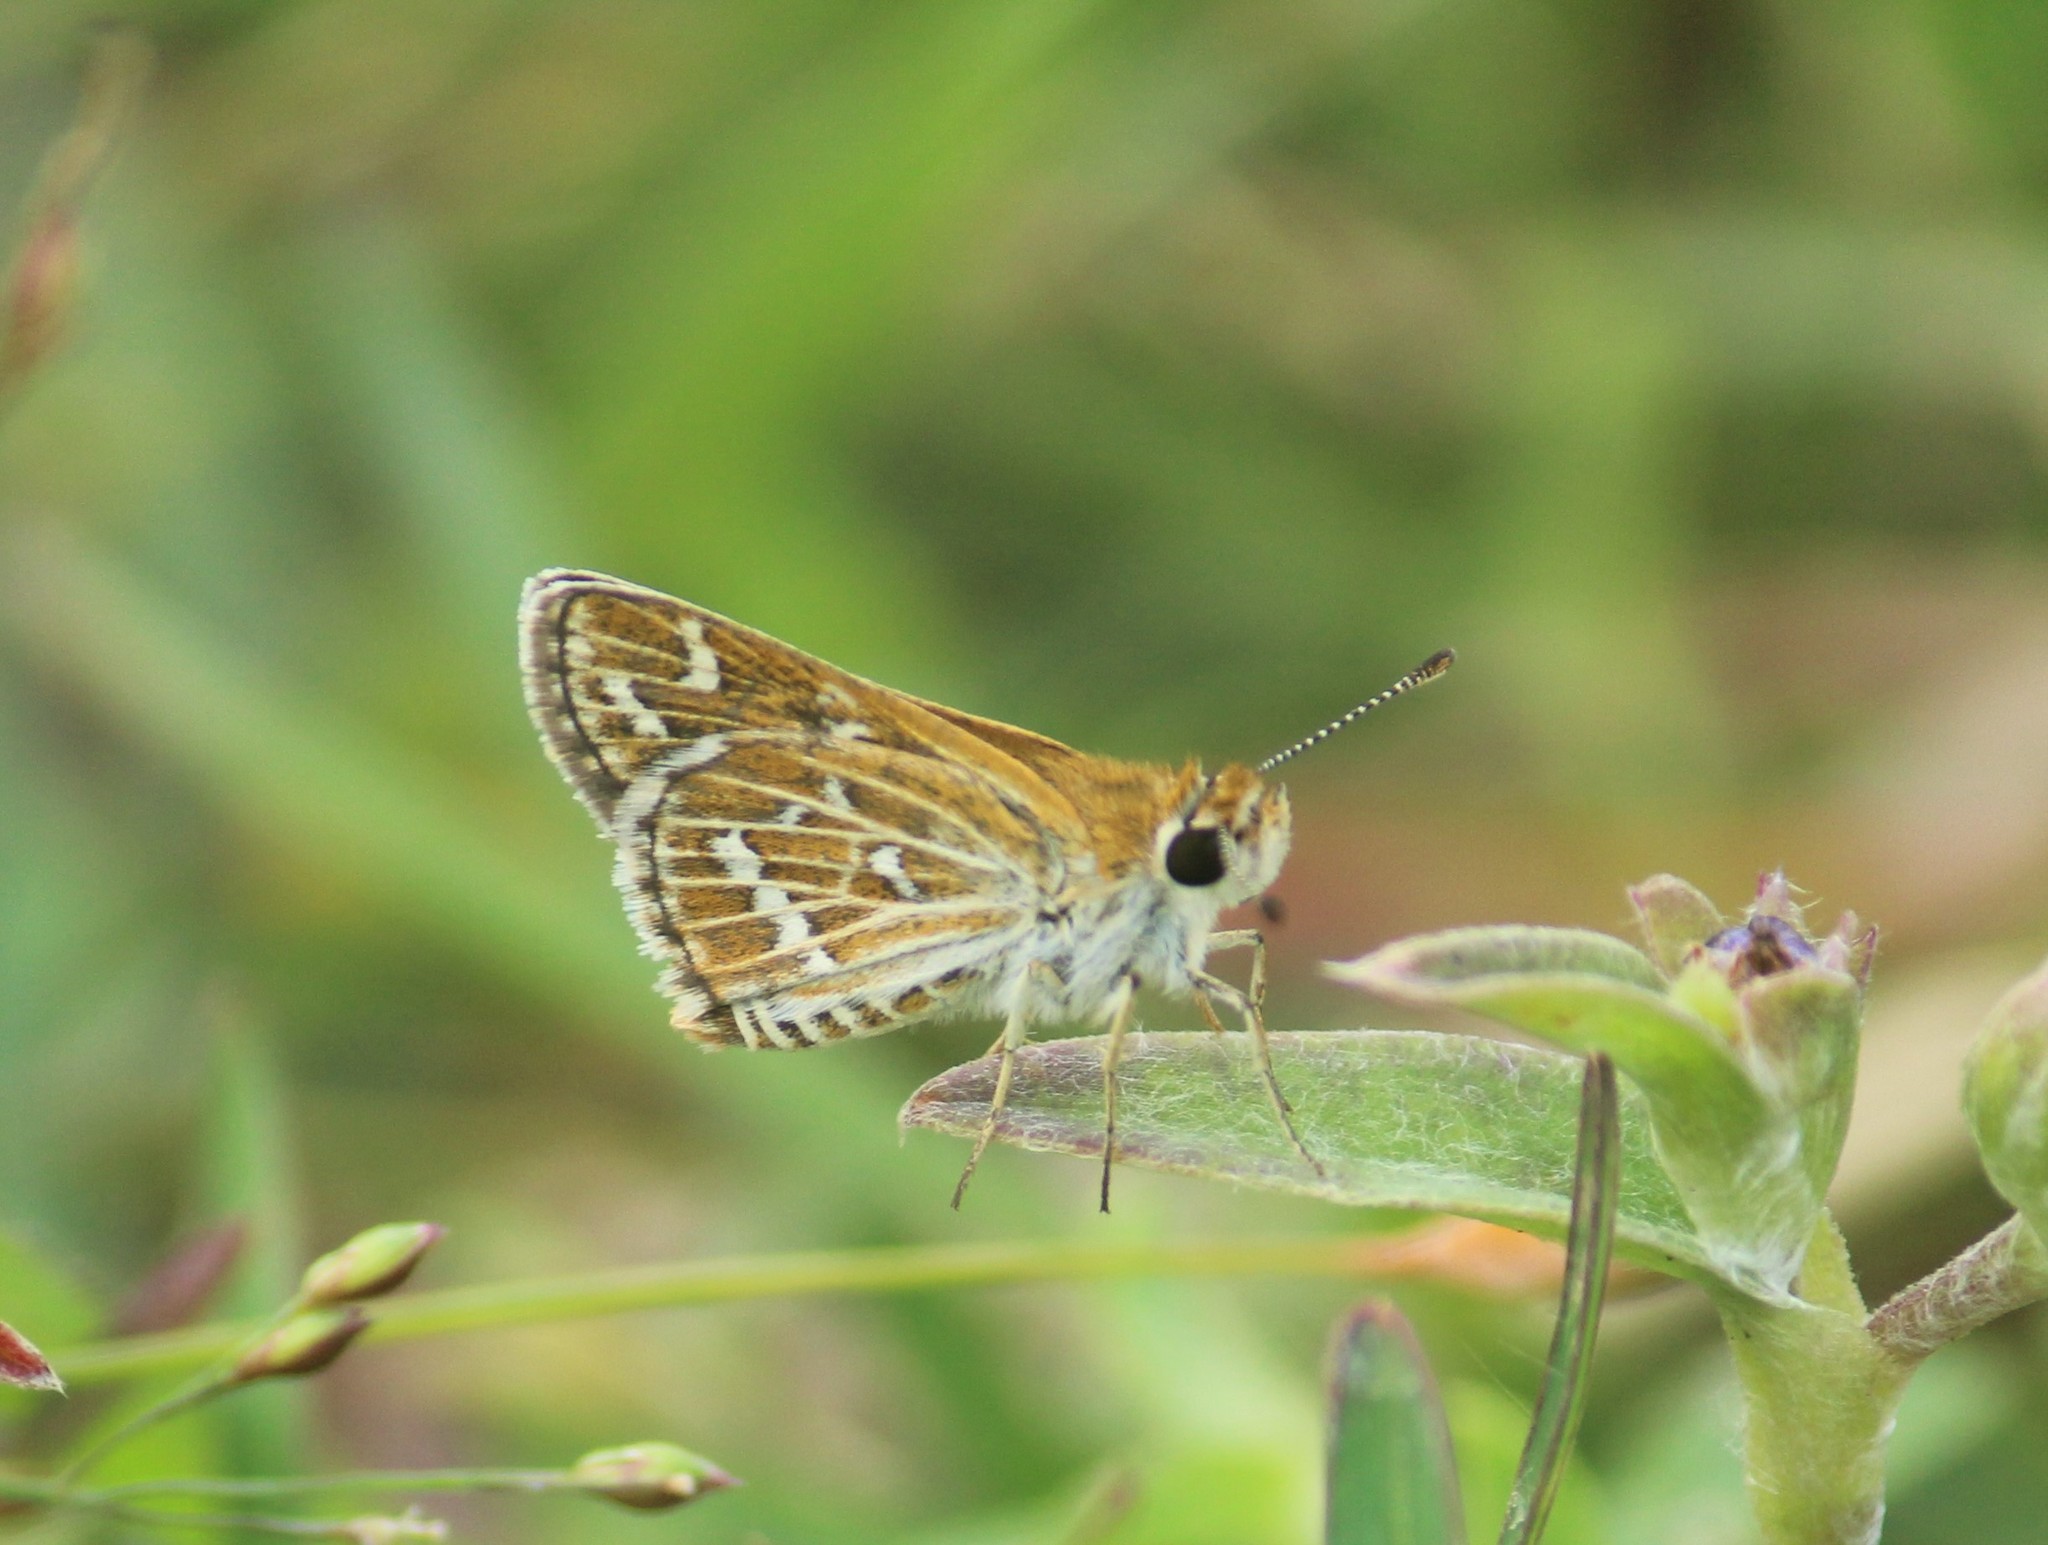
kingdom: Animalia
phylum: Arthropoda
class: Insecta
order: Lepidoptera
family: Hesperiidae
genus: Taractrocera
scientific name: Taractrocera maevius
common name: Common grass-dart
